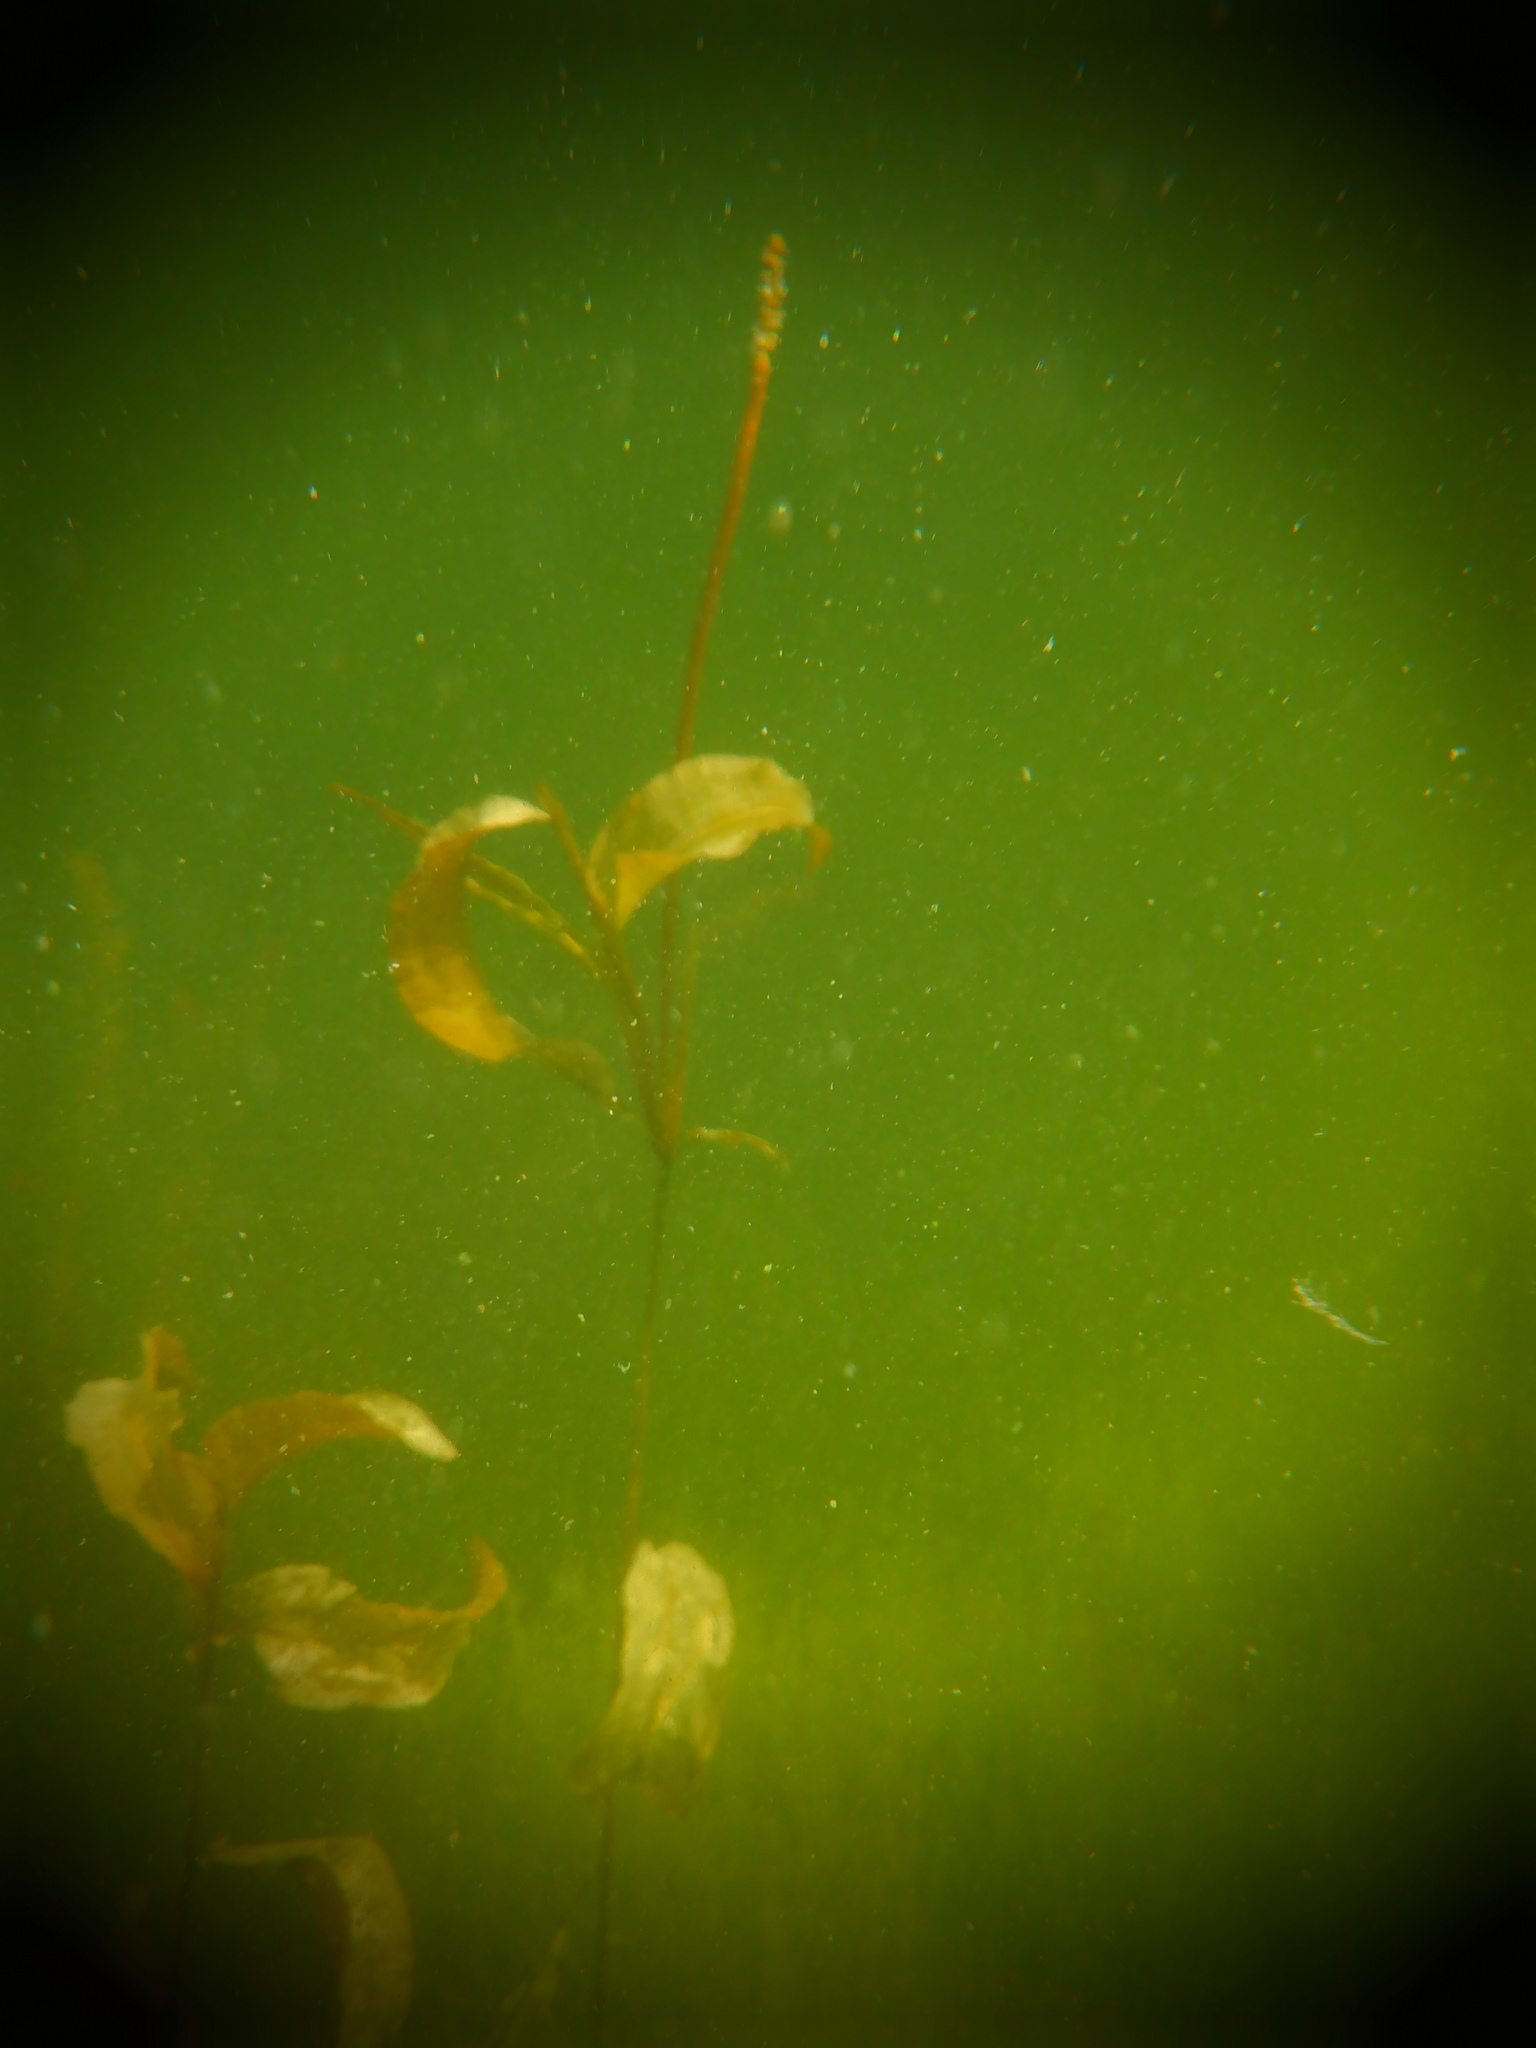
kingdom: Plantae
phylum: Tracheophyta
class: Liliopsida
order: Alismatales
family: Potamogetonaceae
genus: Potamogeton
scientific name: Potamogeton amplifolius
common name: Broad-leaved pondweed
